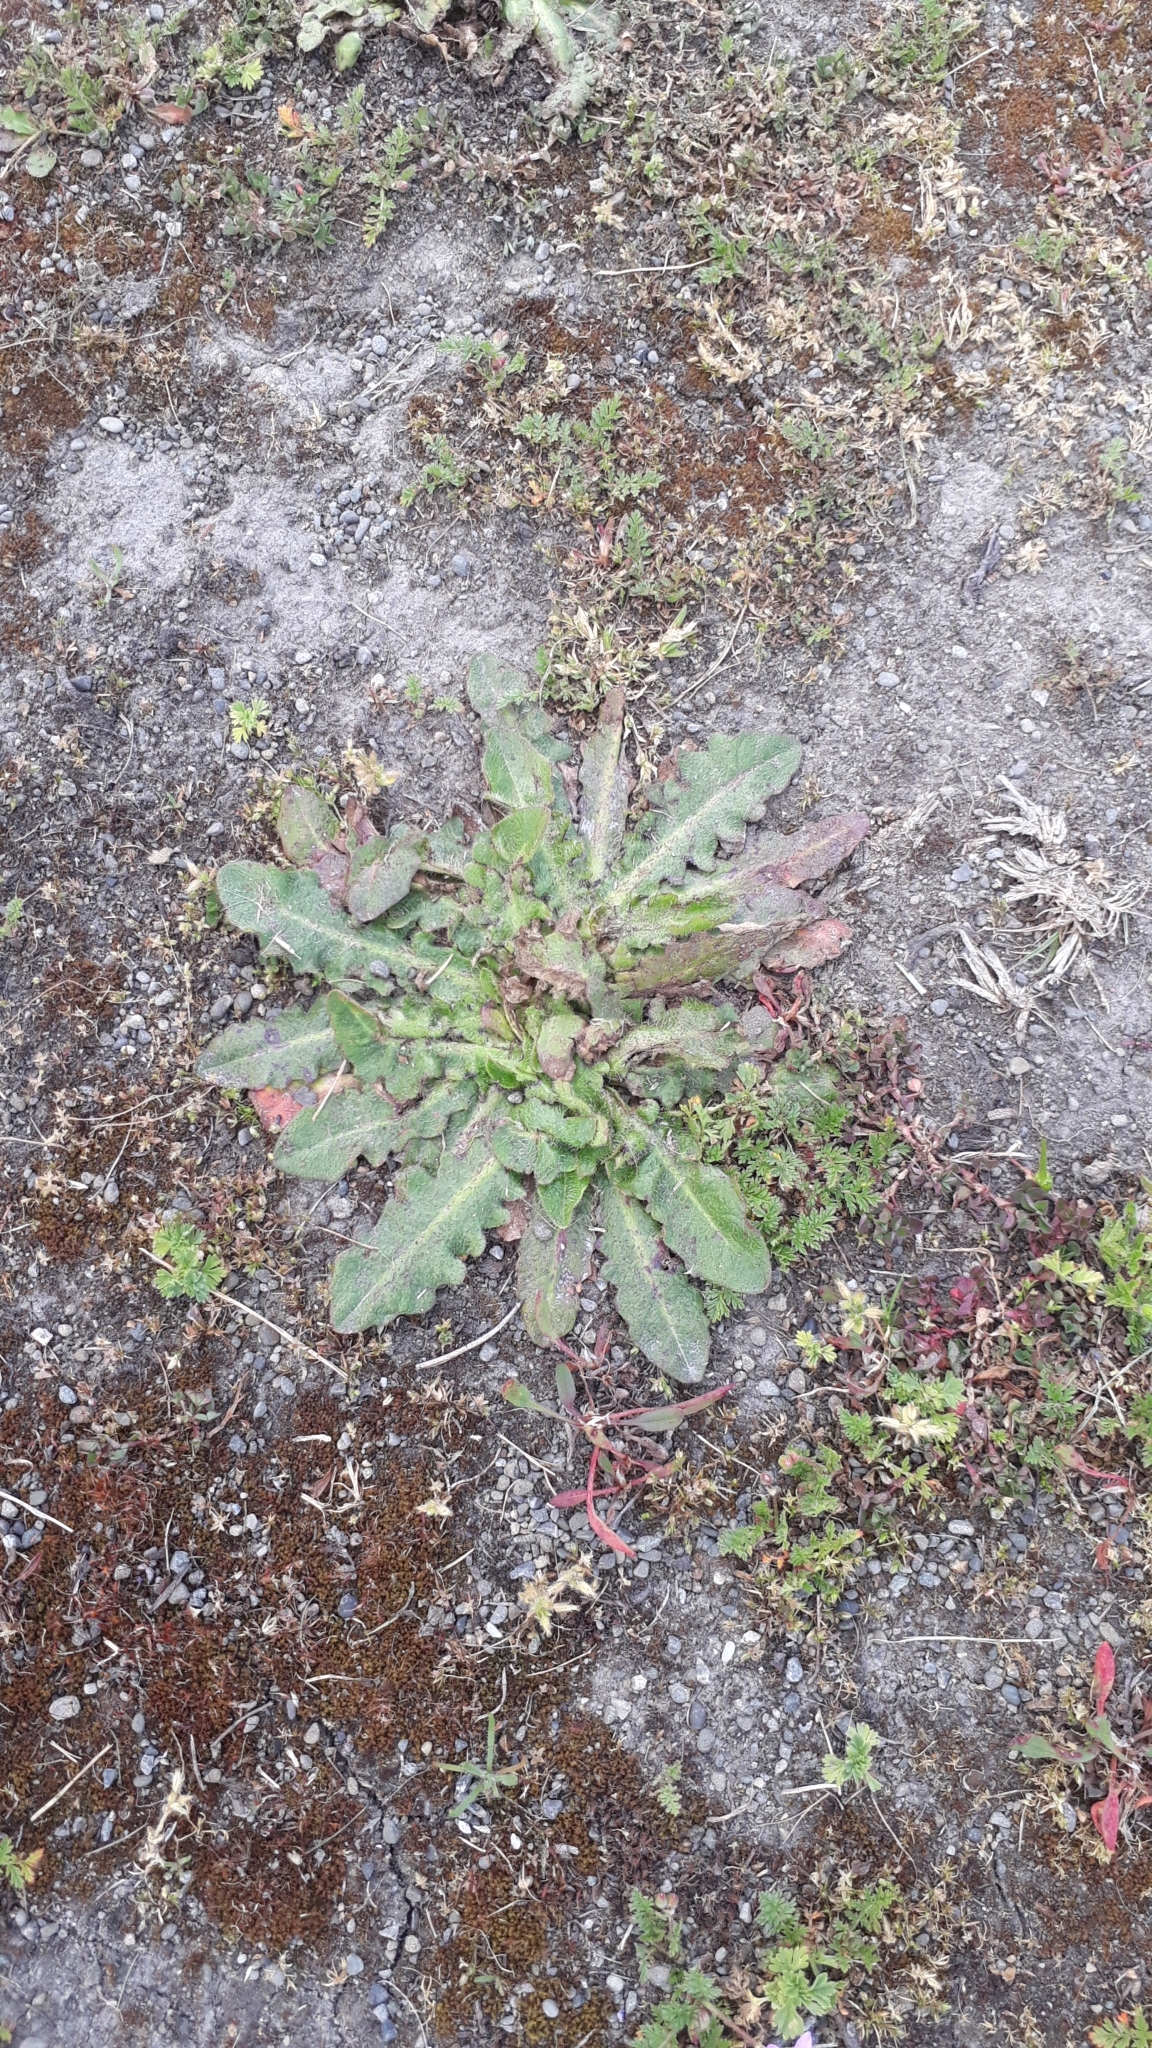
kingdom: Plantae
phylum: Tracheophyta
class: Magnoliopsida
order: Asterales
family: Asteraceae
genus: Hypochaeris
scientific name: Hypochaeris radicata
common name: Flatweed
